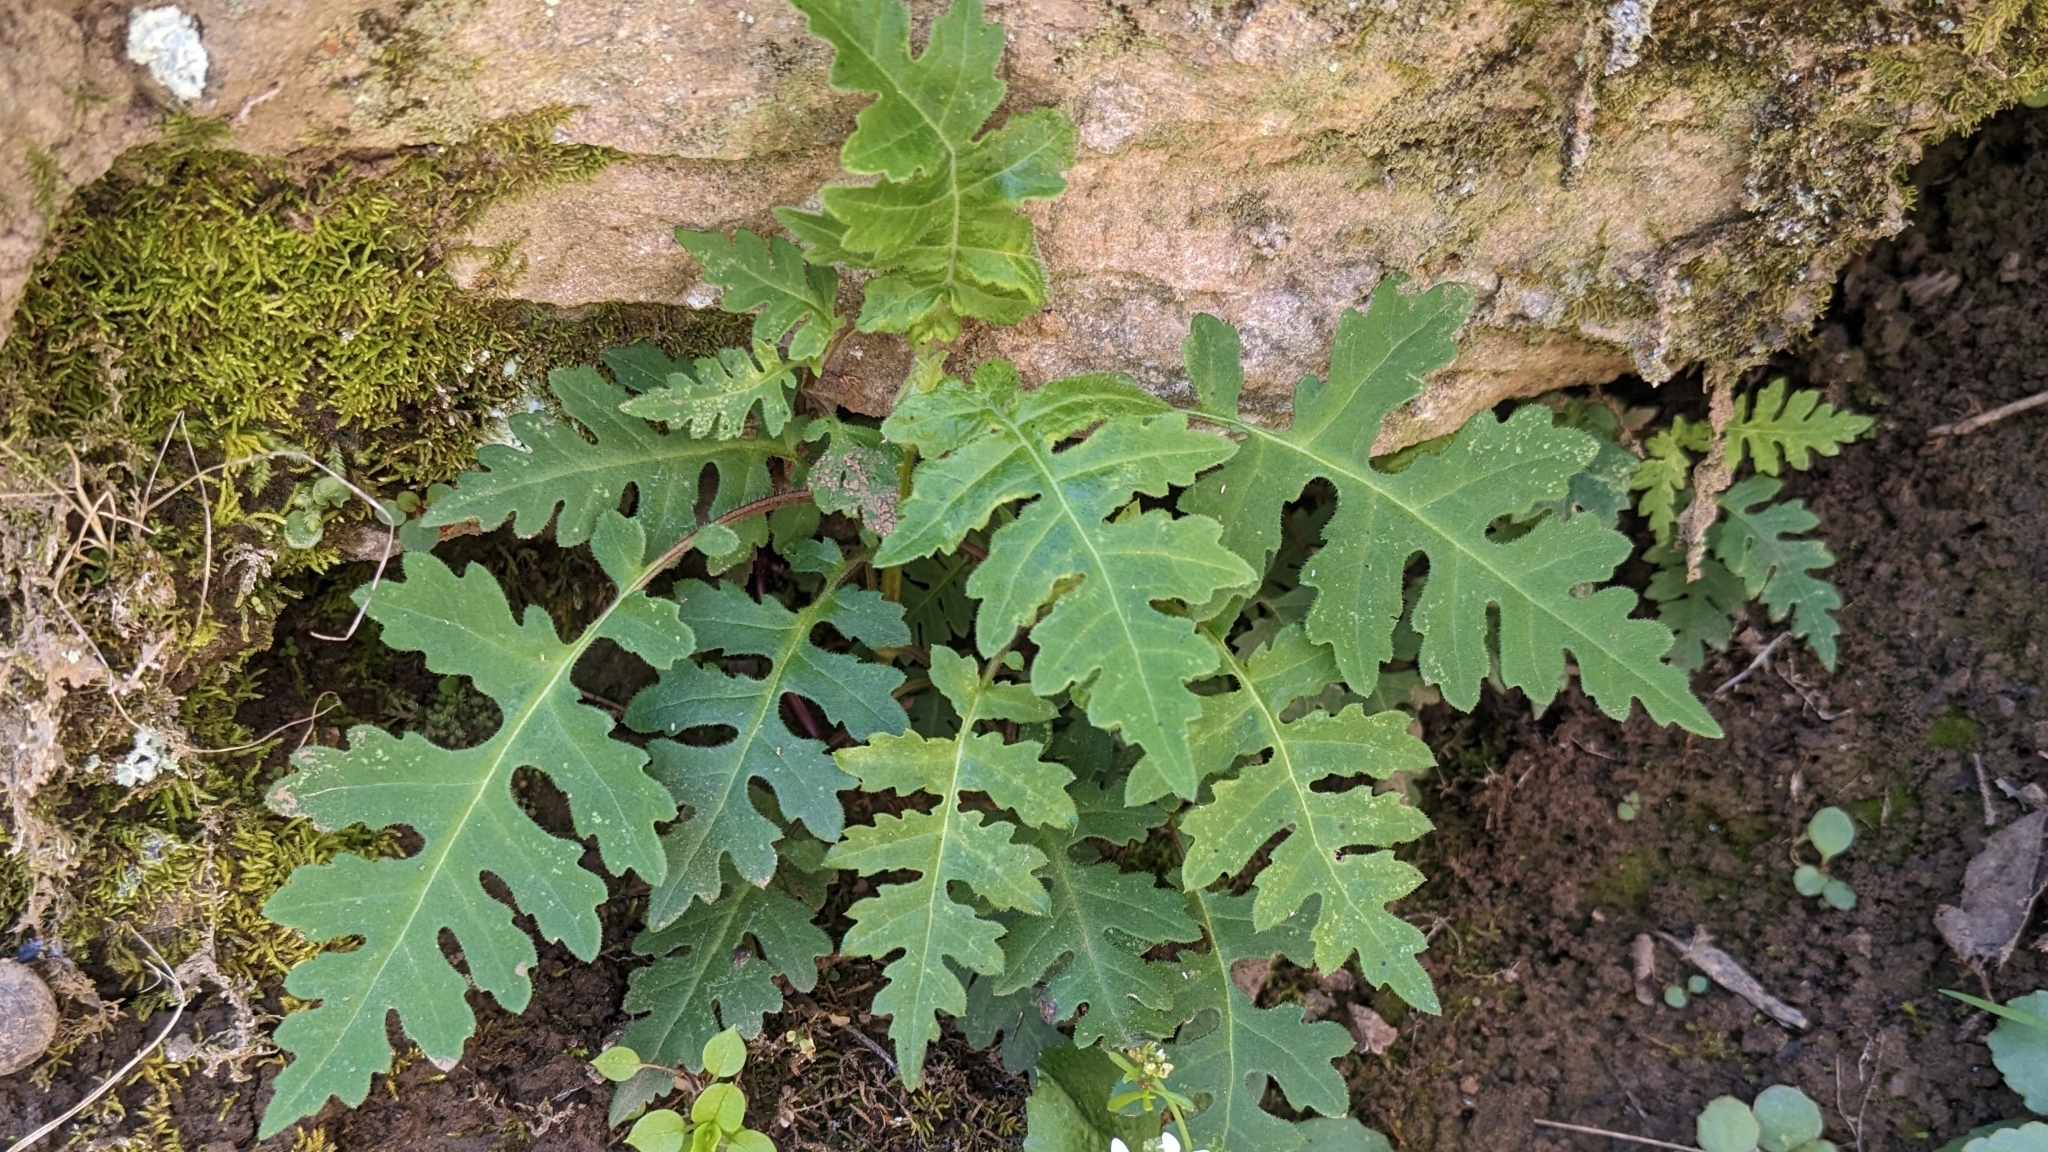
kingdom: Plantae
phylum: Tracheophyta
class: Magnoliopsida
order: Asterales
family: Asteraceae
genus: Polymnia
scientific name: Polymnia canadensis
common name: Pale-flowered leafcup
